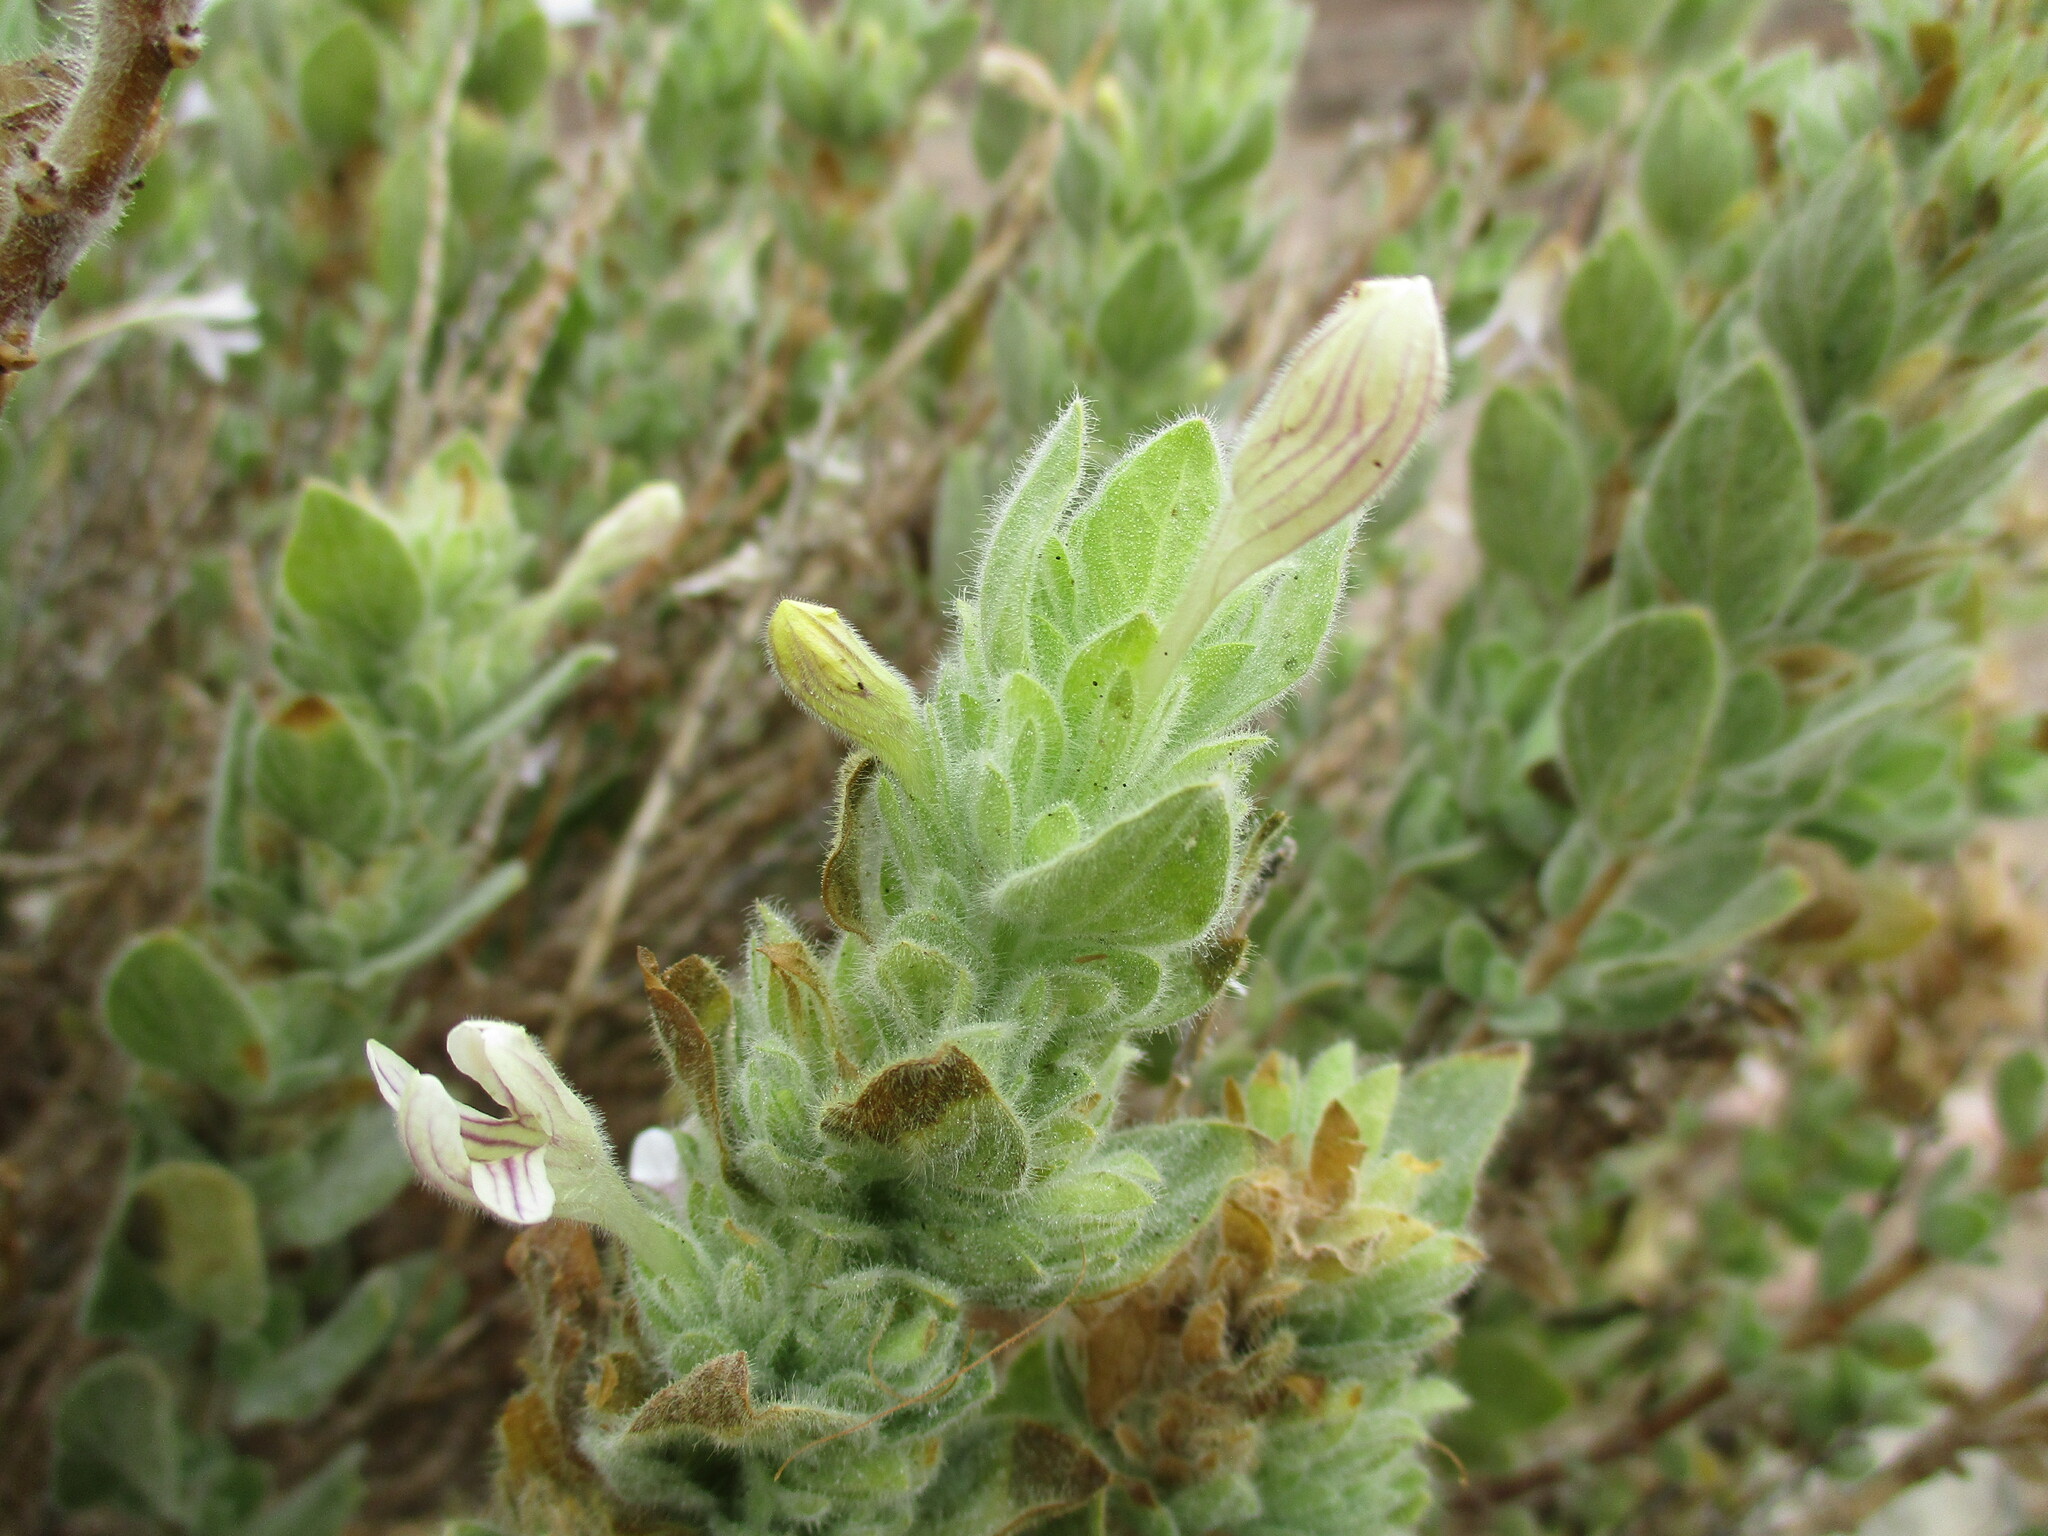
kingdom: Plantae
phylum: Tracheophyta
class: Magnoliopsida
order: Lamiales
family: Acanthaceae
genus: Dinteracanthus
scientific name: Dinteracanthus acetabulus
